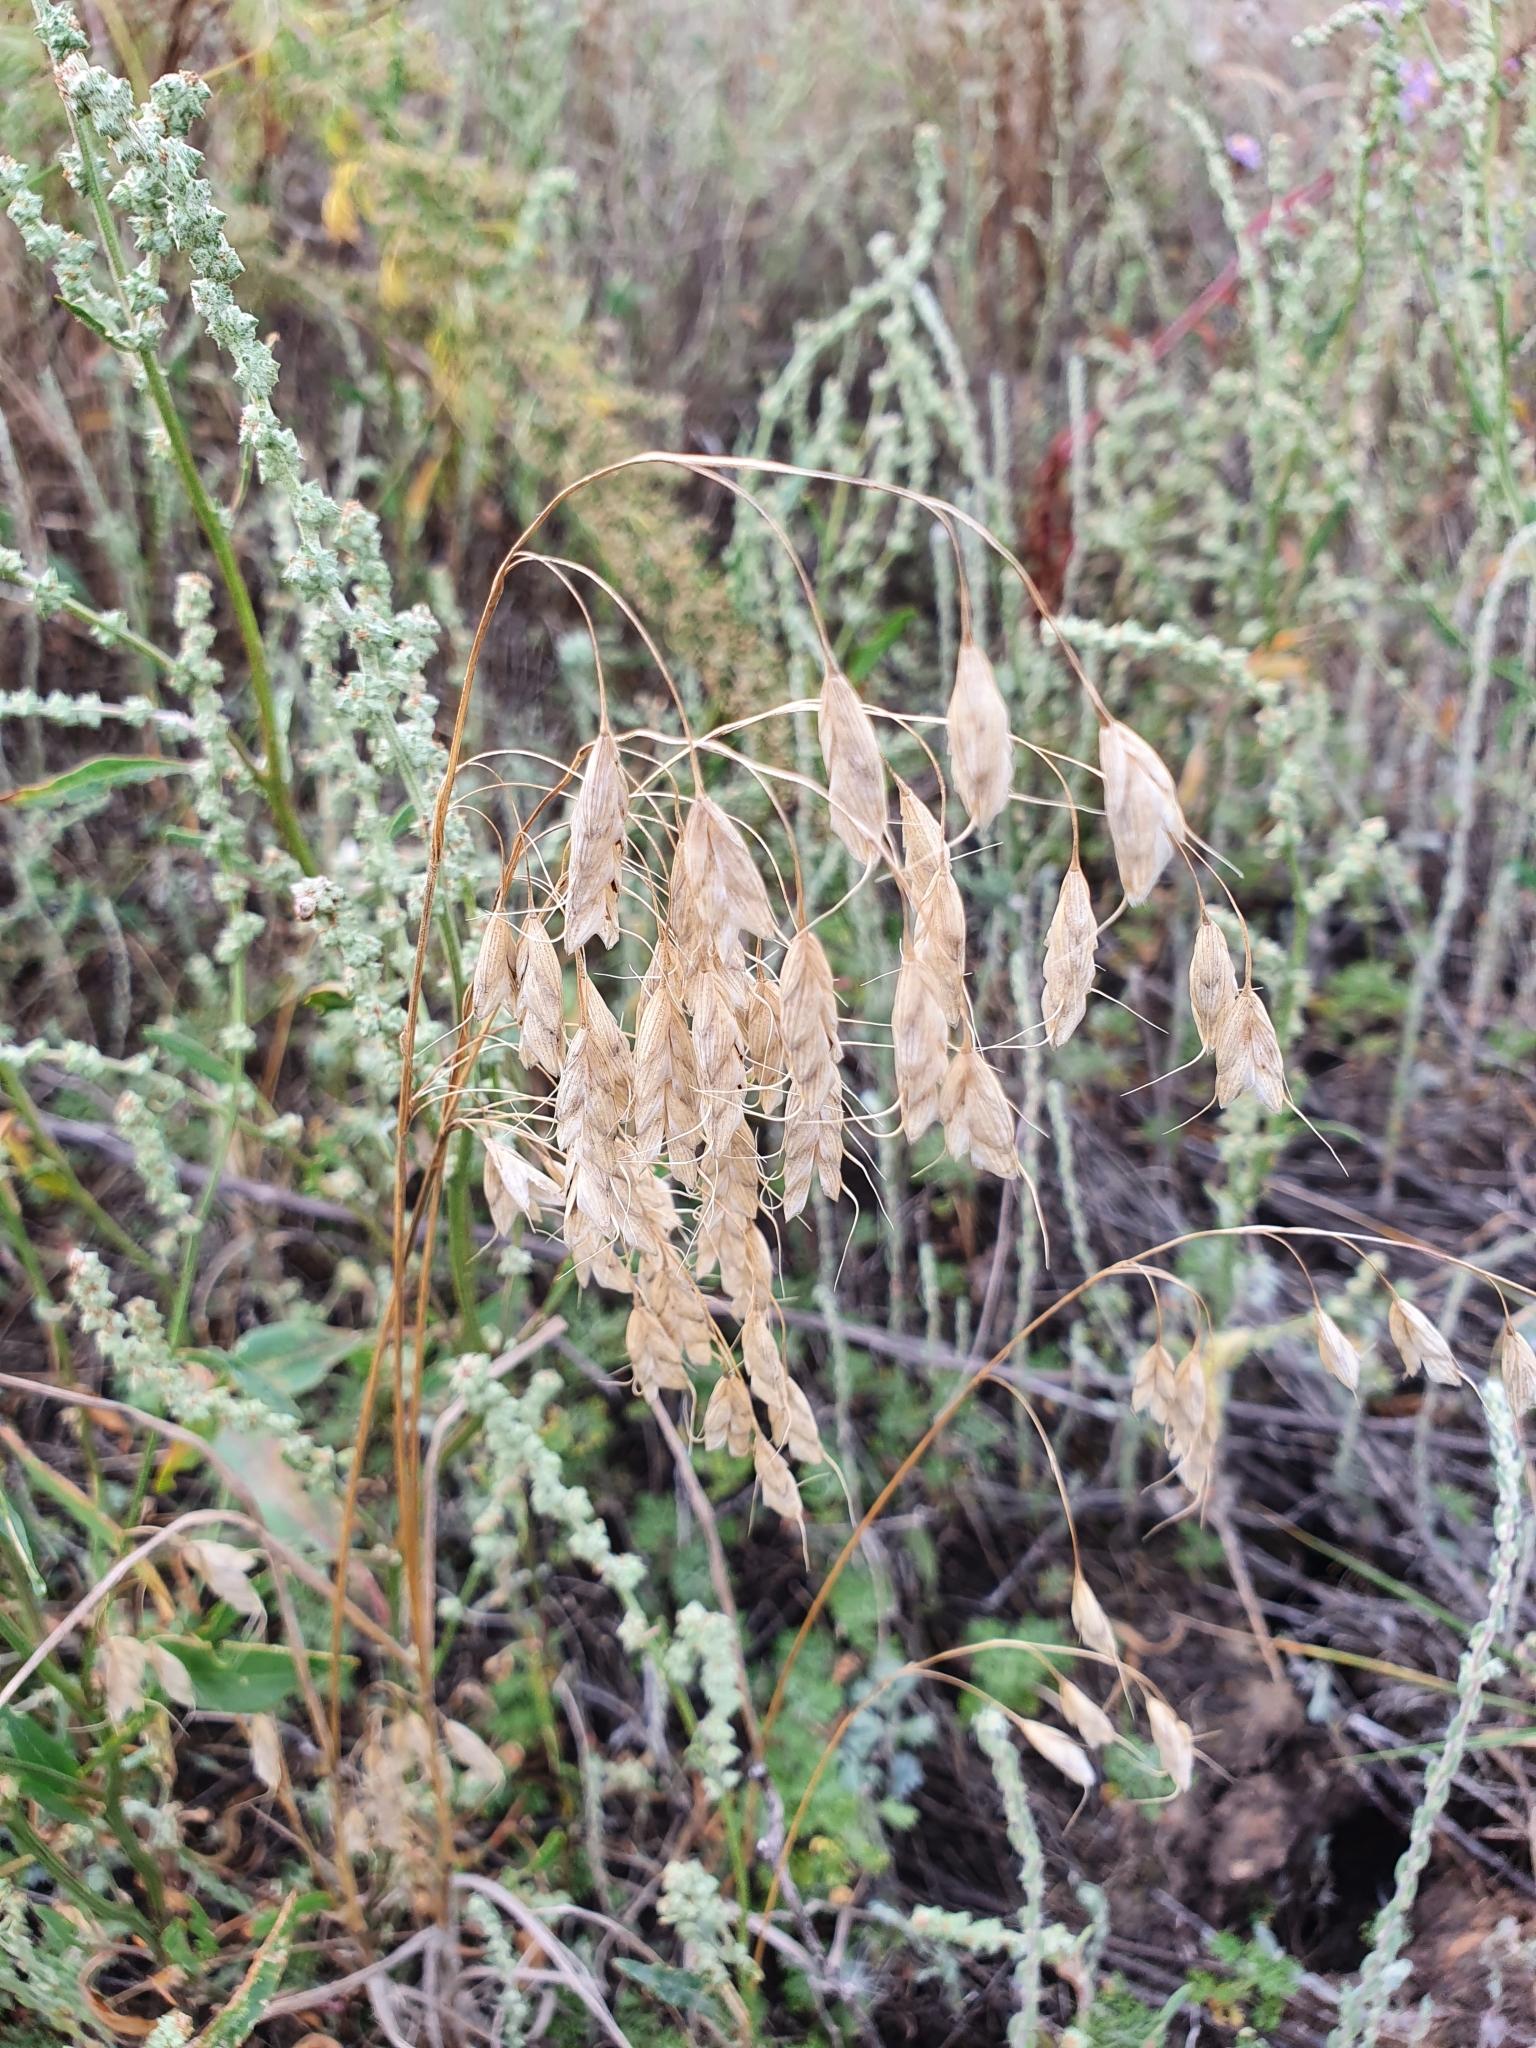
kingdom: Plantae
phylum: Tracheophyta
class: Liliopsida
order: Poales
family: Poaceae
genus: Bromus
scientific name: Bromus squarrosus
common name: Corn brome
